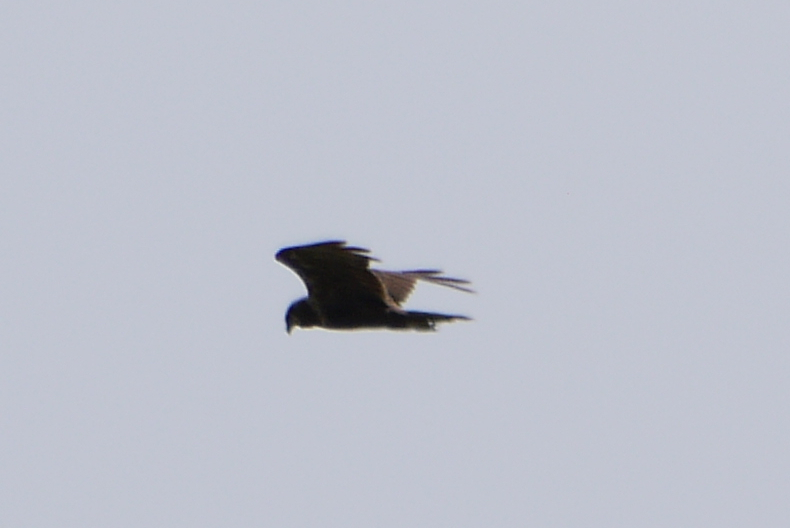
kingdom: Animalia
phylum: Chordata
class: Aves
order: Accipitriformes
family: Accipitridae
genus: Circus
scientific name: Circus aeruginosus
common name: Western marsh harrier
